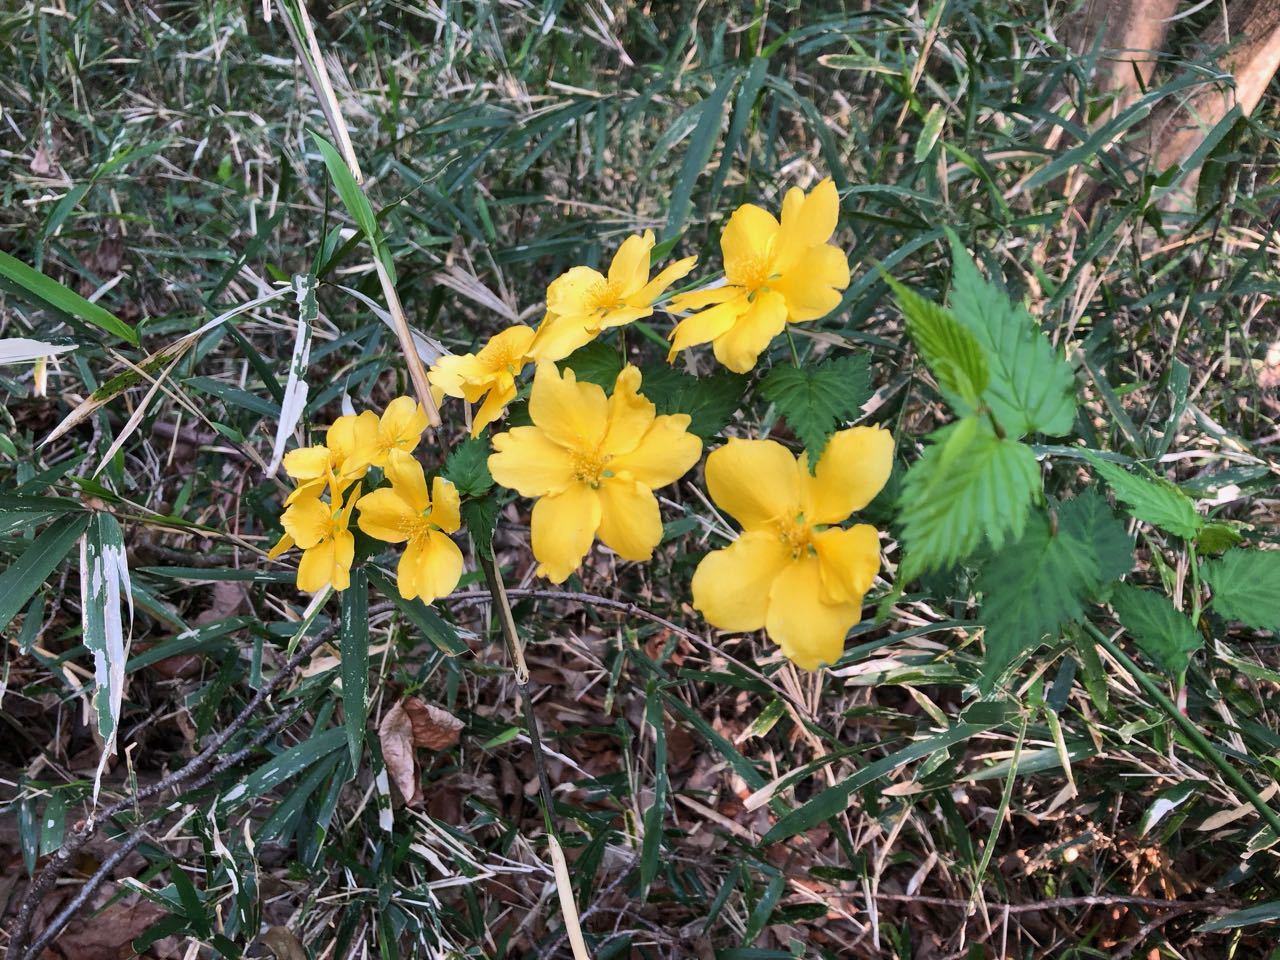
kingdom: Plantae
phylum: Tracheophyta
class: Magnoliopsida
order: Rosales
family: Rosaceae
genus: Kerria
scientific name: Kerria japonica
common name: Japanese kerria
